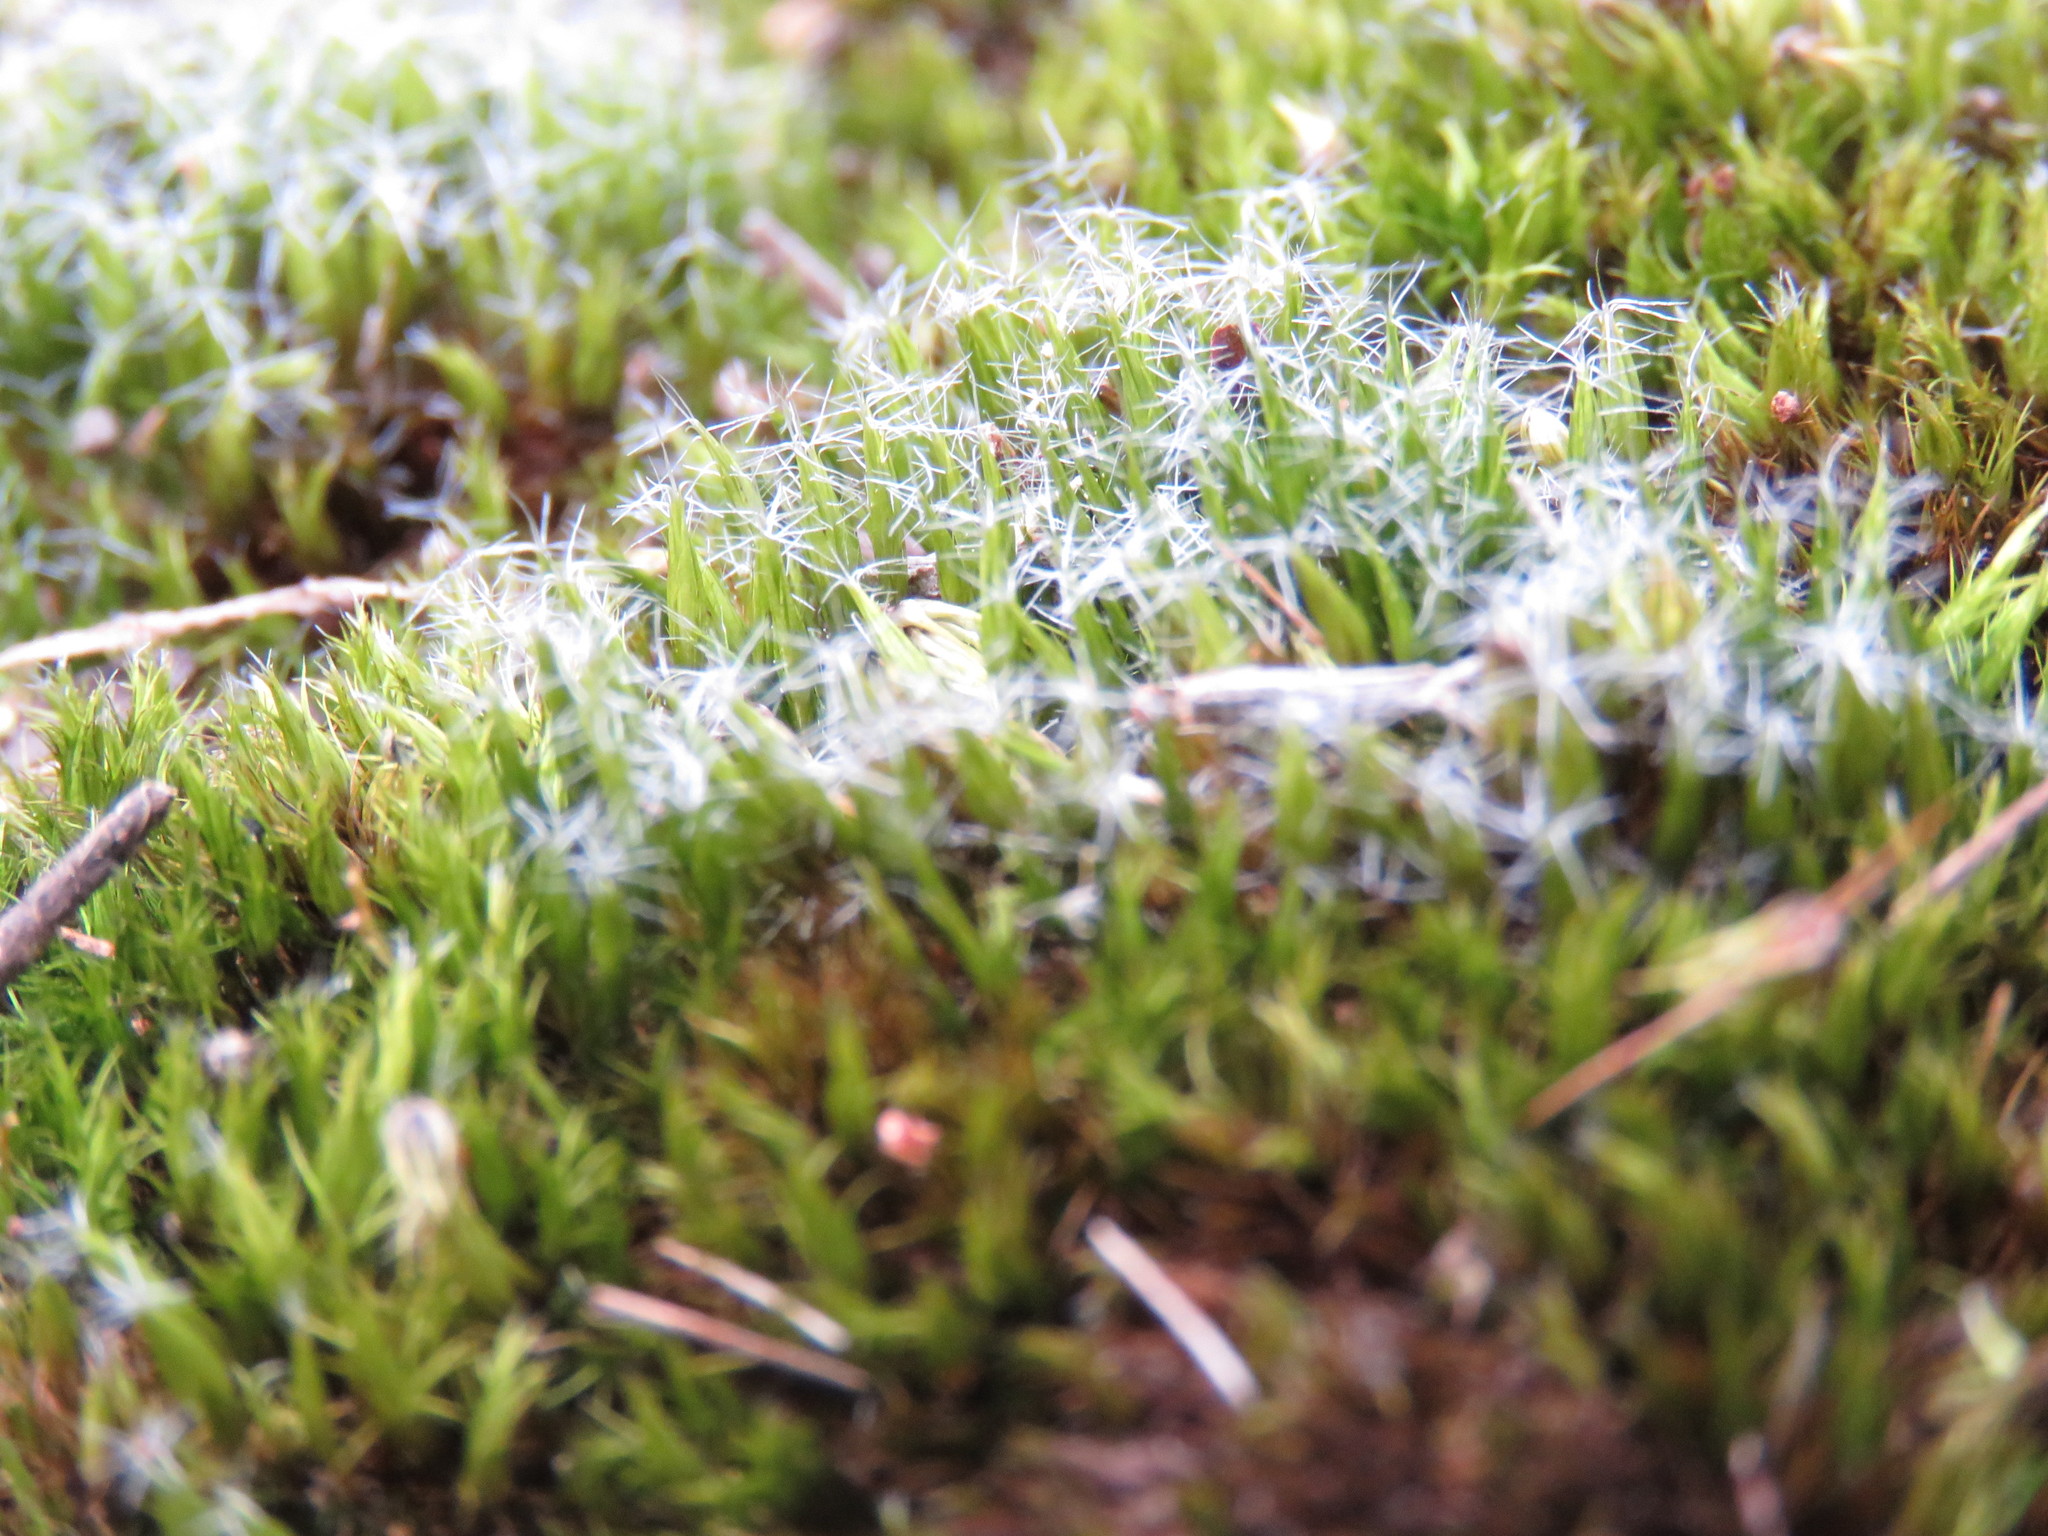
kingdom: Plantae
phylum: Bryophyta
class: Bryopsida
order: Dicranales
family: Leucobryaceae
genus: Campylopus
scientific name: Campylopus introflexus
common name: Heath star moss
